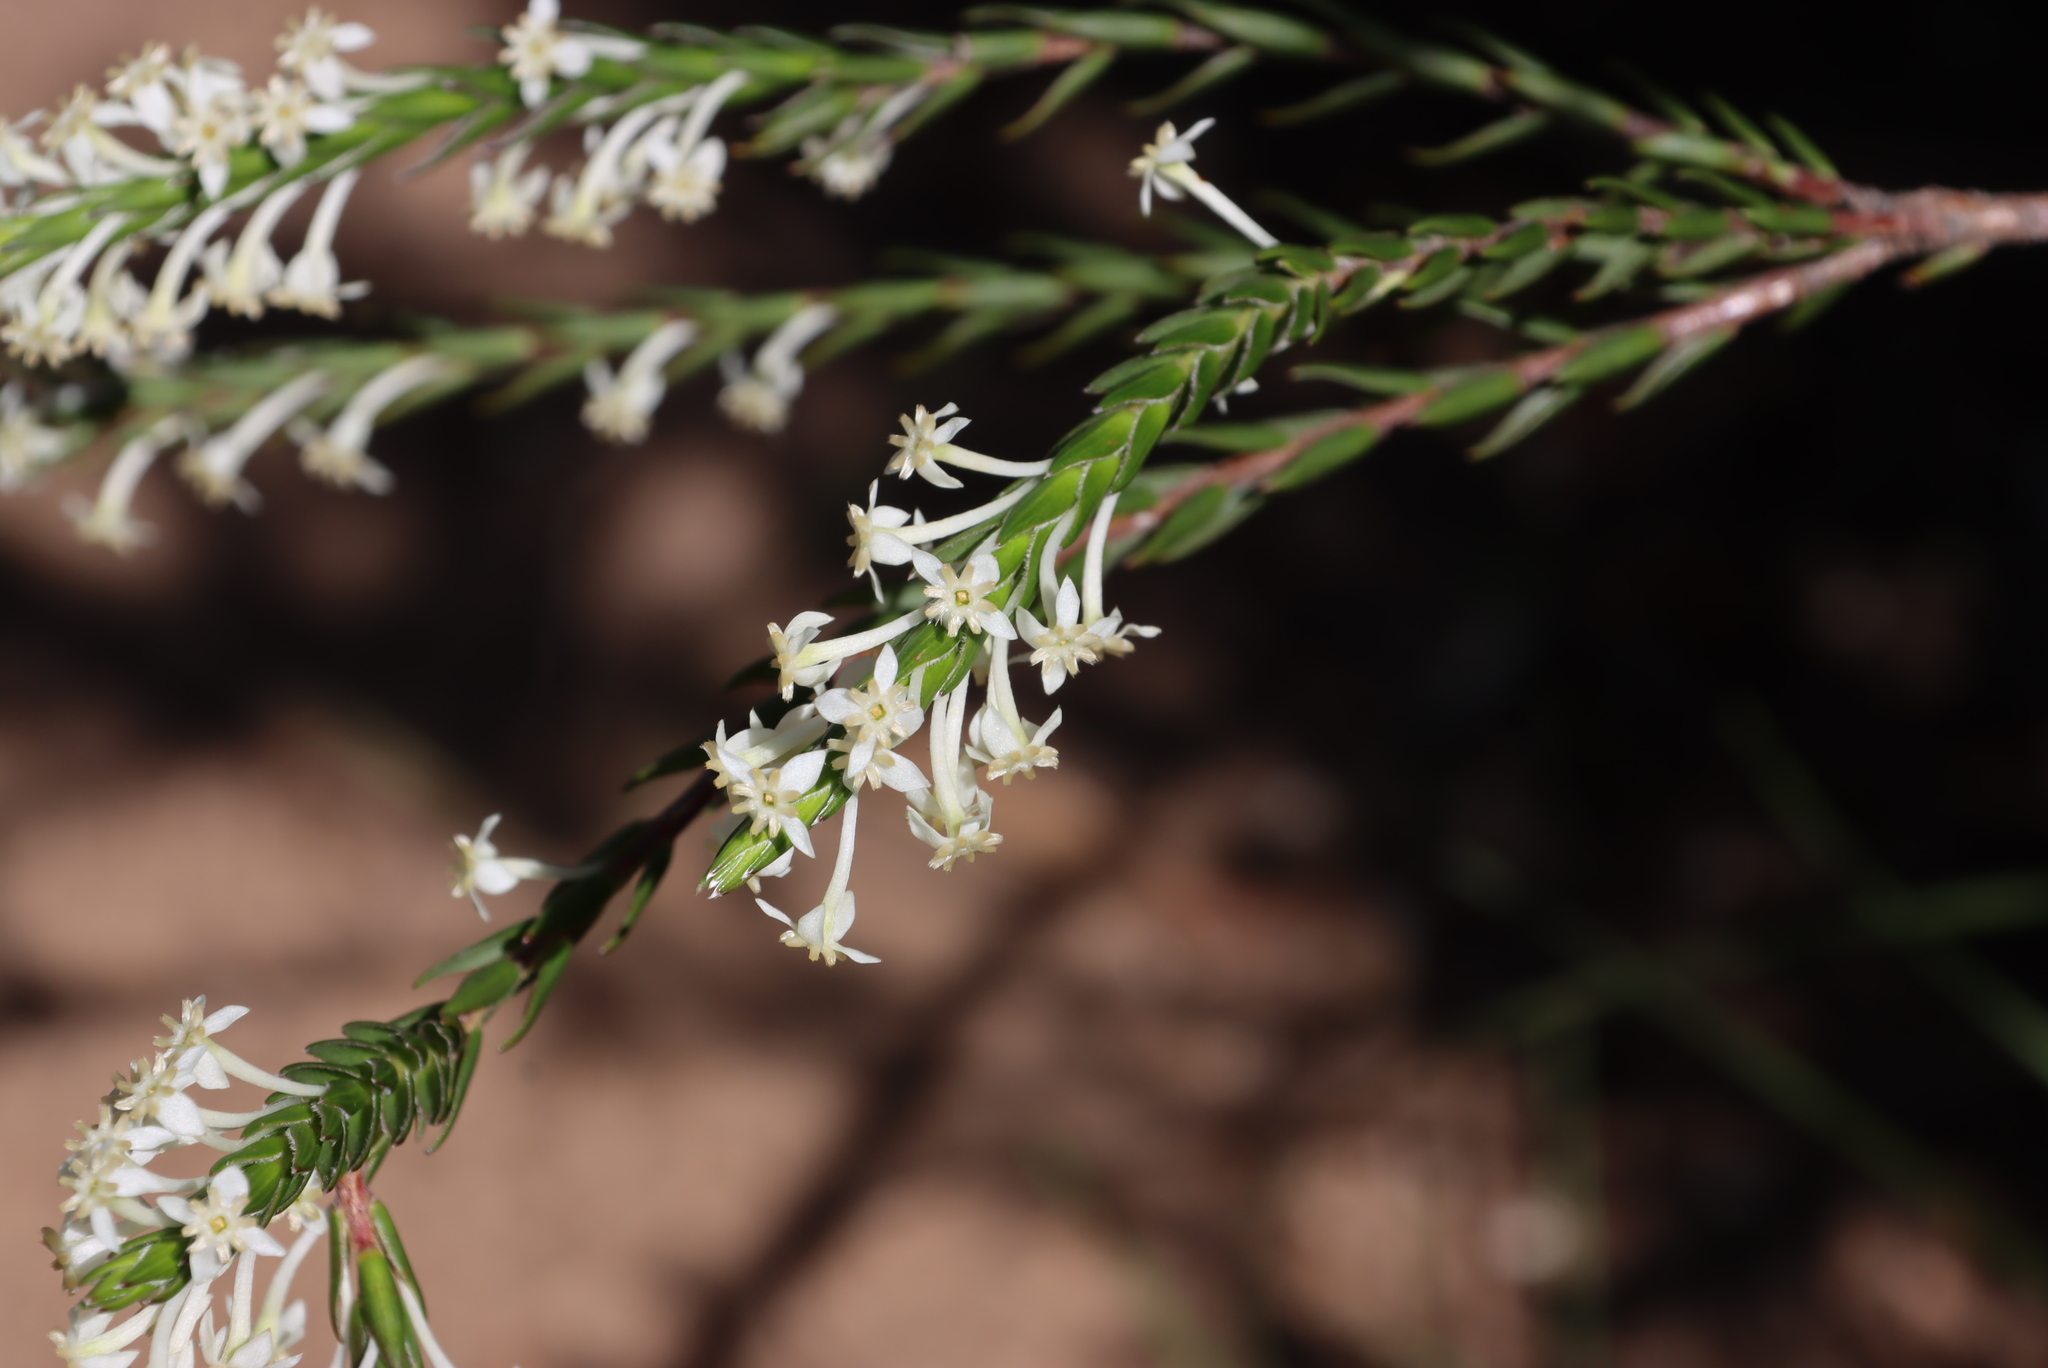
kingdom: Plantae
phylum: Tracheophyta
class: Magnoliopsida
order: Malvales
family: Thymelaeaceae
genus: Struthiola
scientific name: Struthiola ciliata
